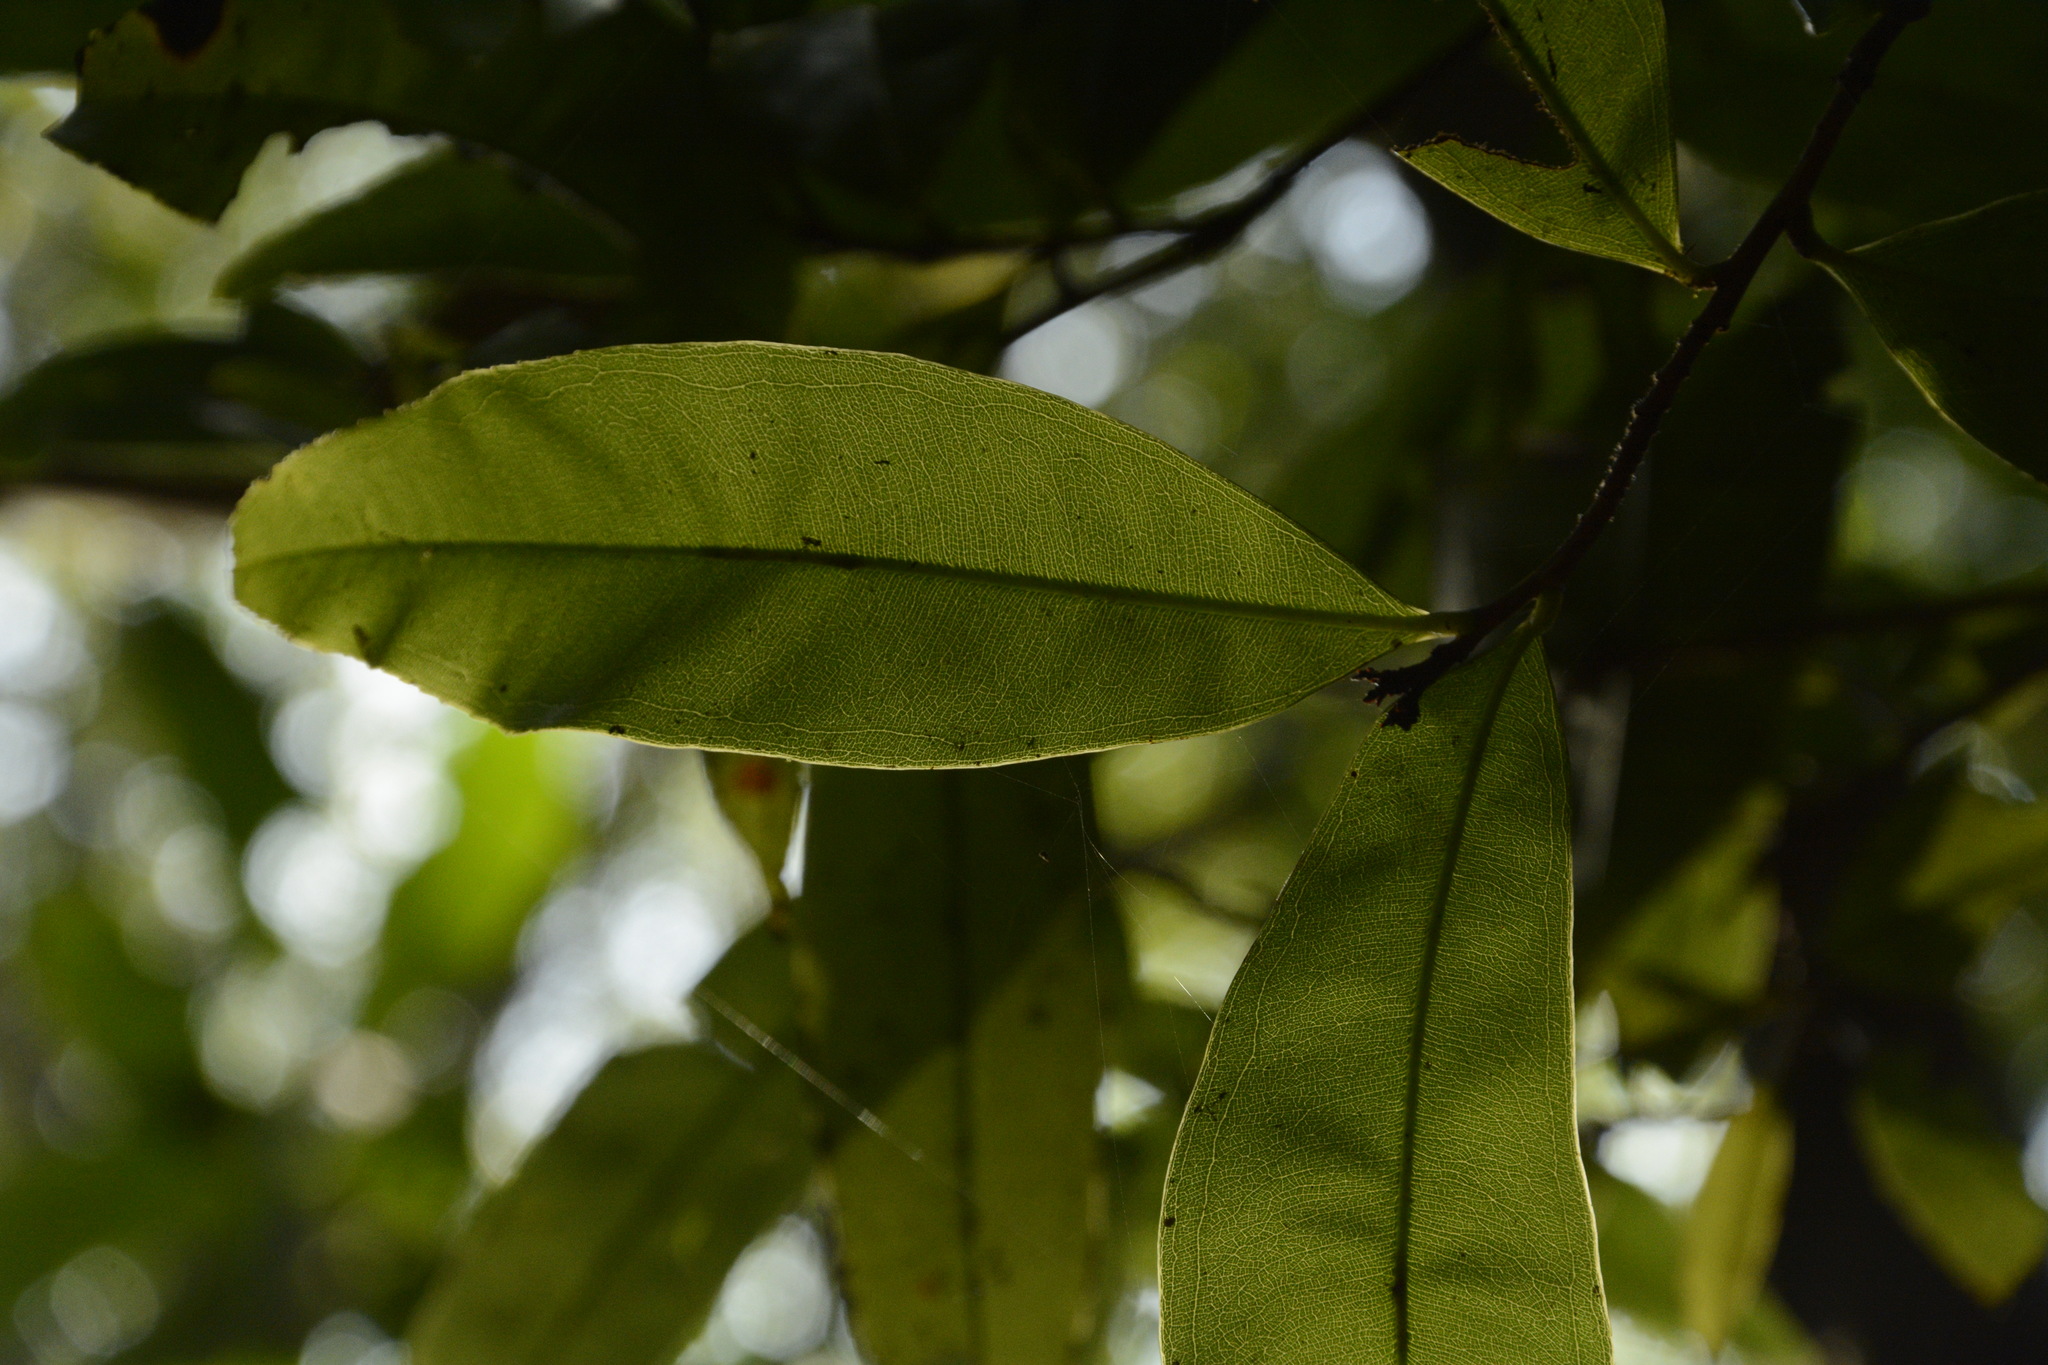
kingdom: Plantae
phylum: Tracheophyta
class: Magnoliopsida
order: Malpighiales
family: Ochnaceae
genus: Gomphia
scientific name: Gomphia serrata
